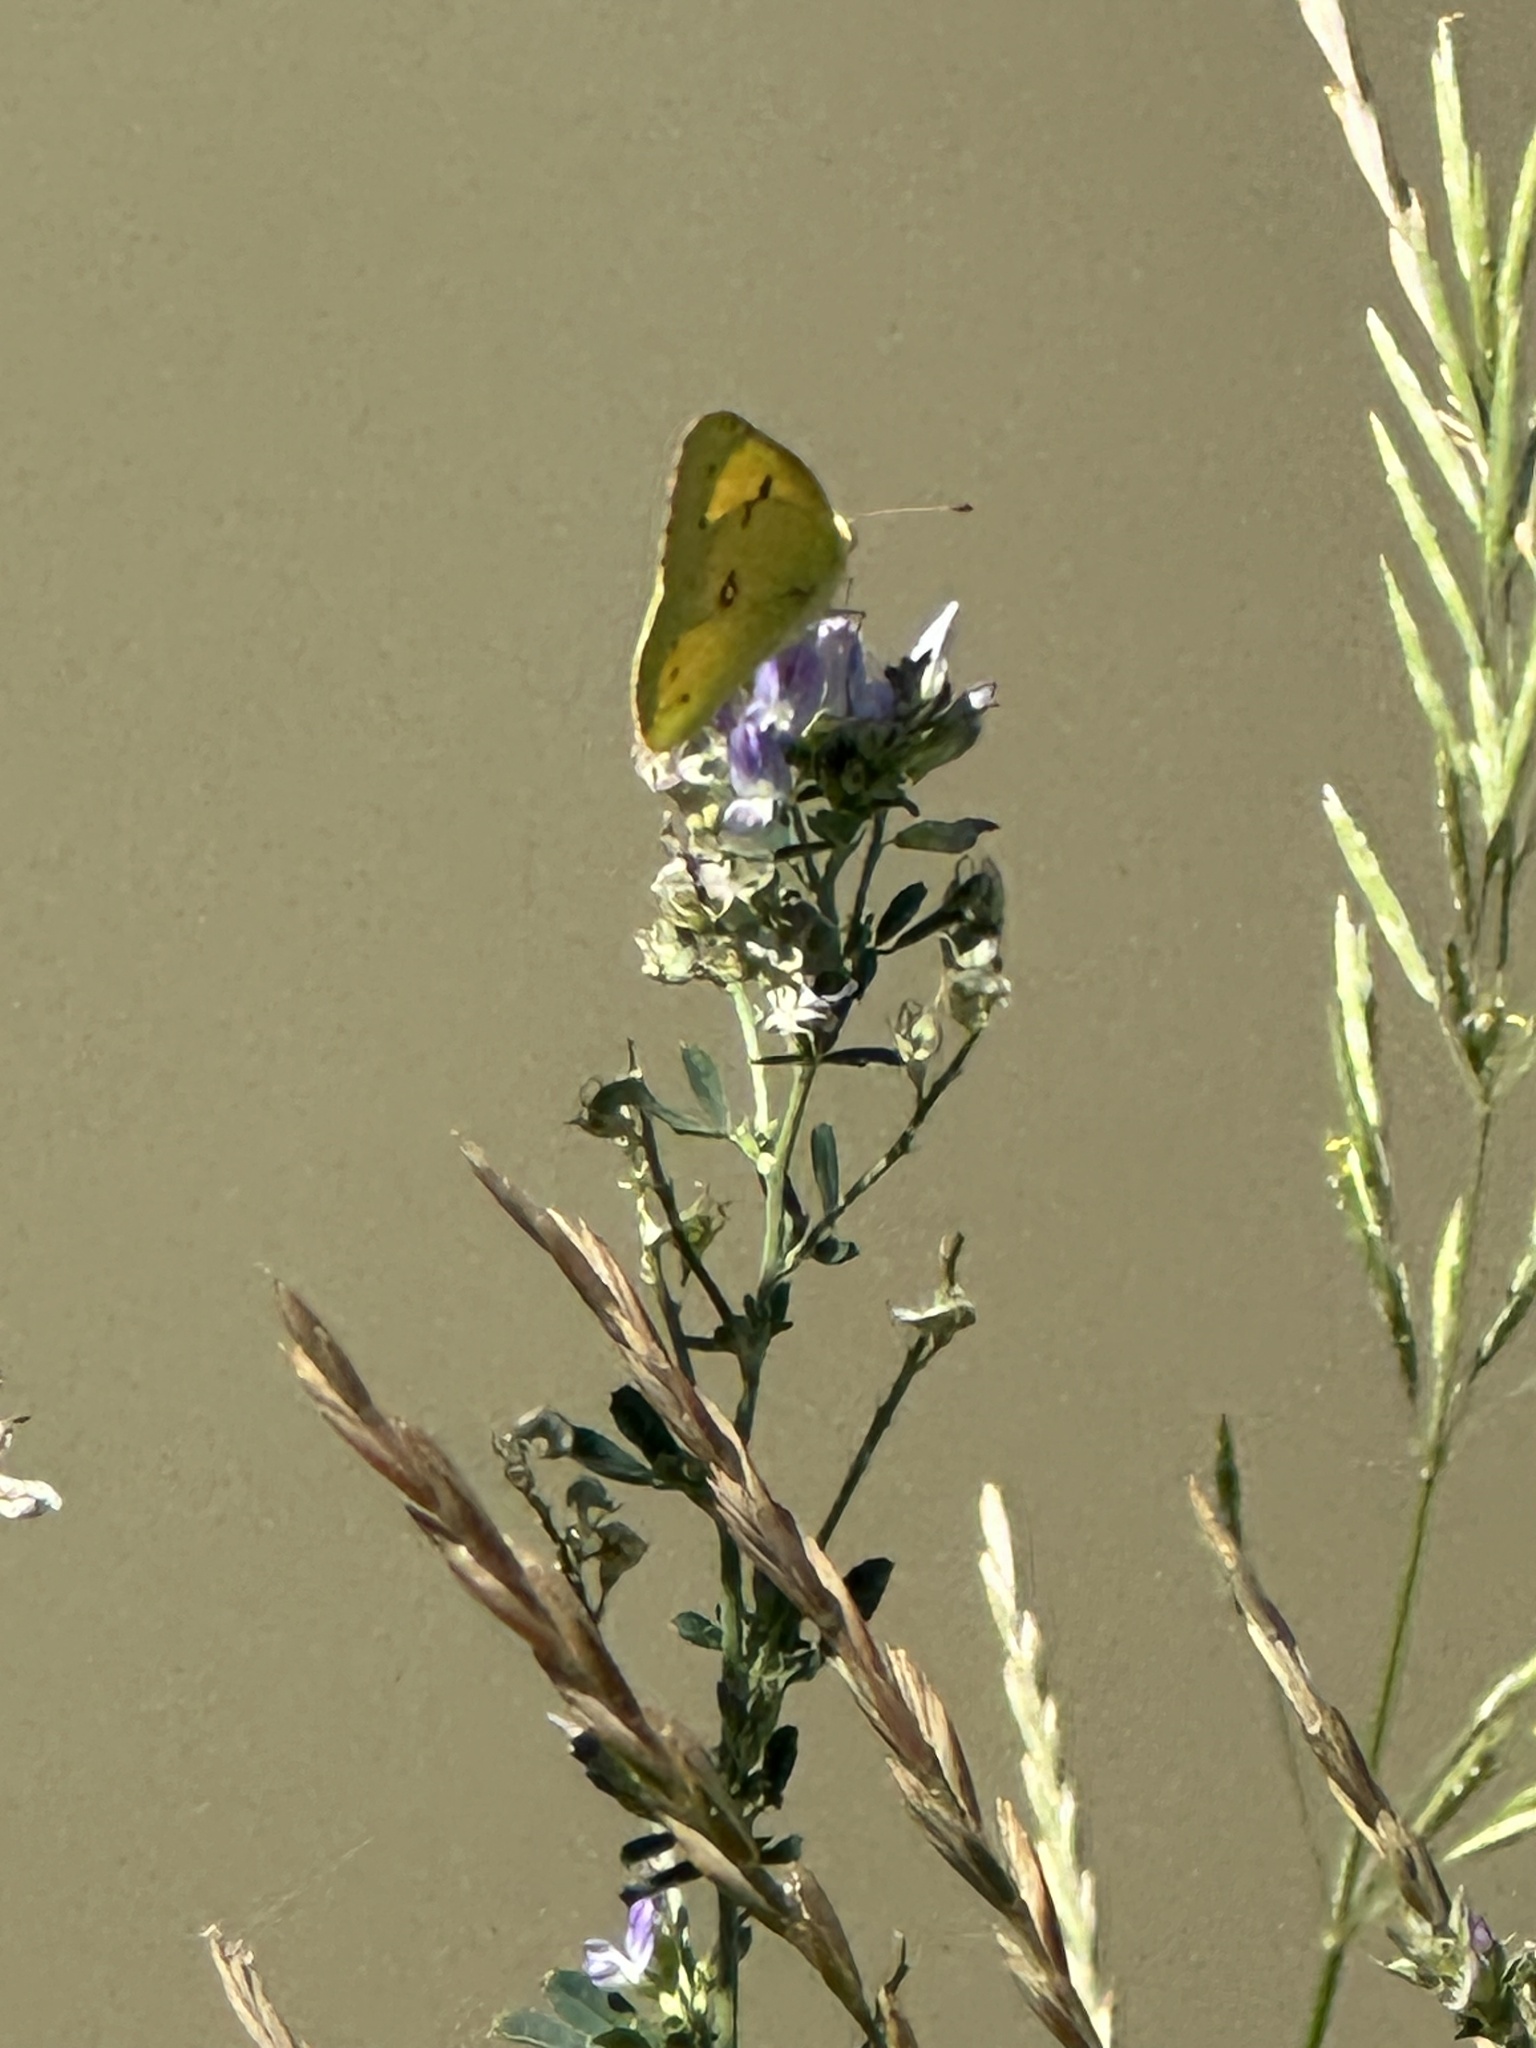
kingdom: Animalia
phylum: Arthropoda
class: Insecta
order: Lepidoptera
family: Pieridae
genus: Colias
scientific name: Colias eurytheme
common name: Alfalfa butterfly
